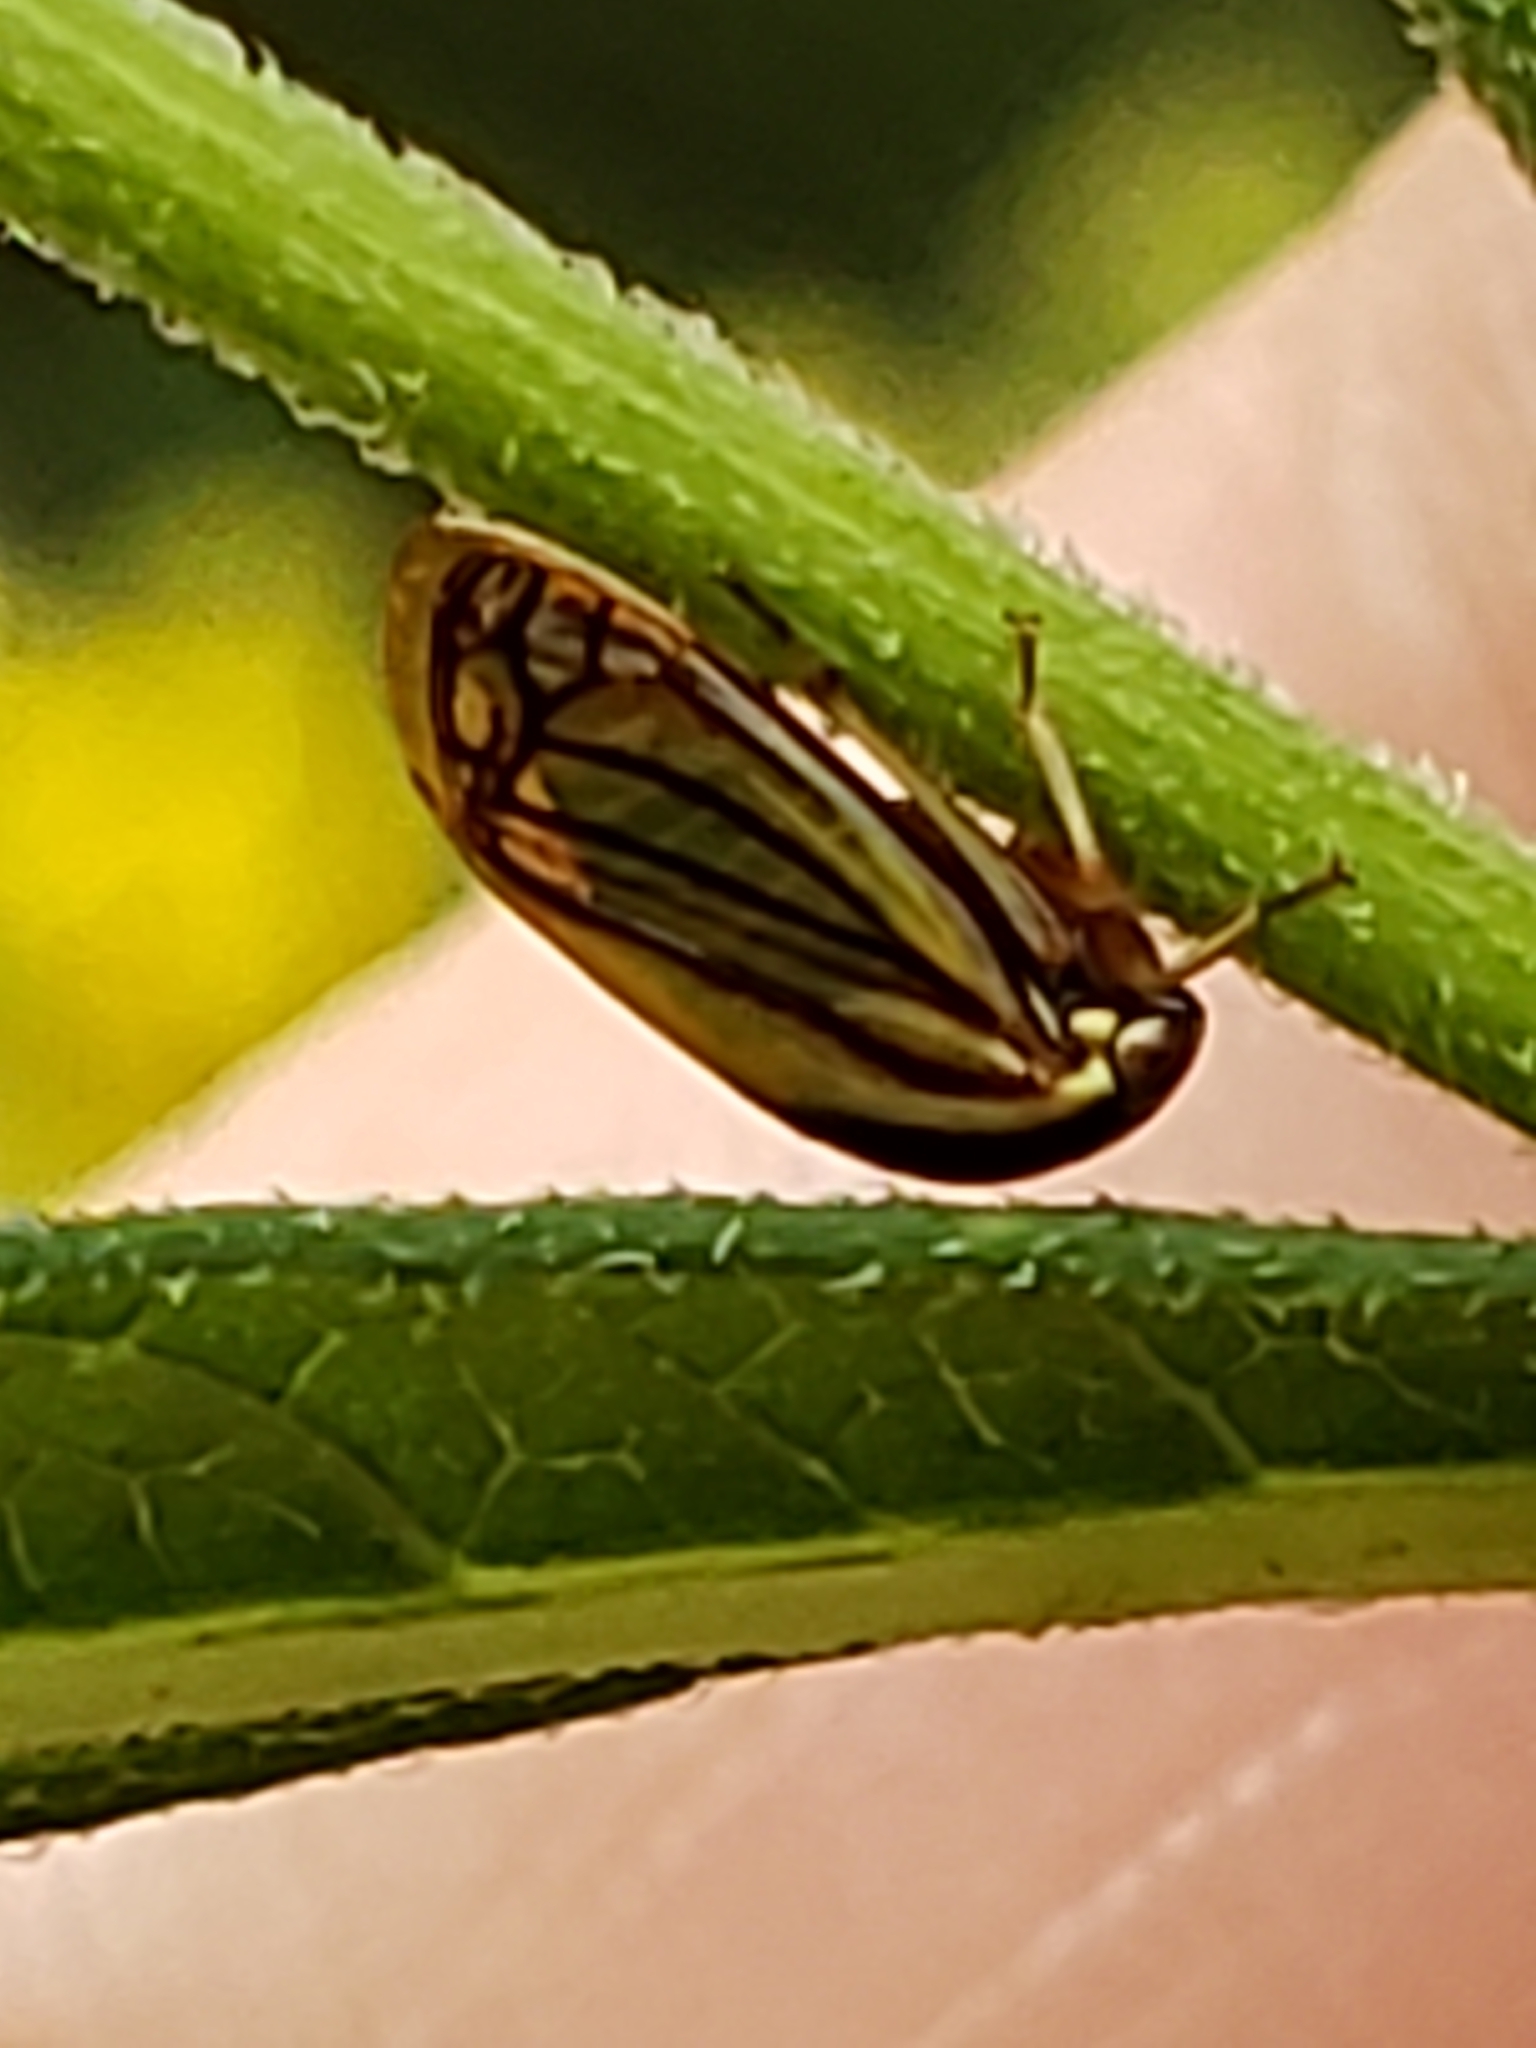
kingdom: Animalia
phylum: Arthropoda
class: Insecta
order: Hemiptera
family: Membracidae
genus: Acutalis
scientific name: Acutalis tartarea
